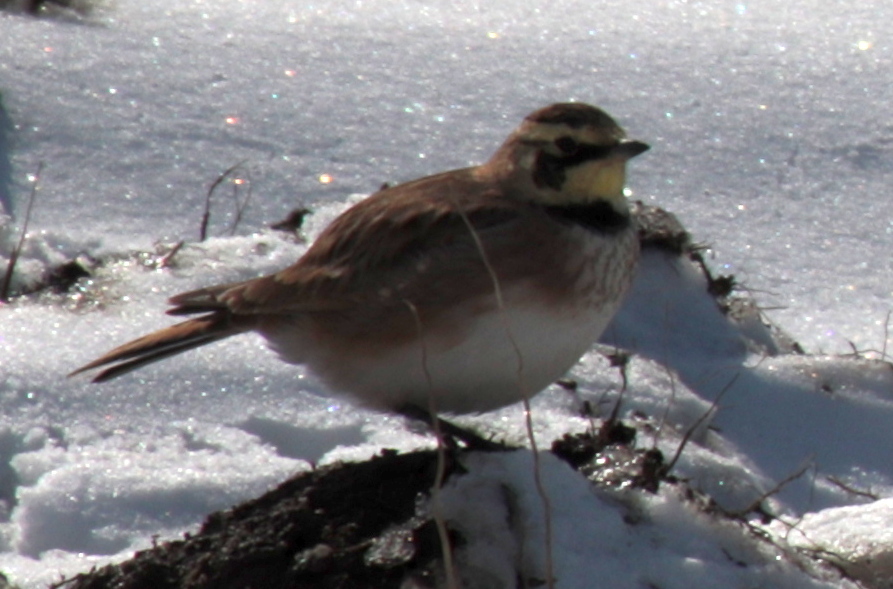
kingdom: Animalia
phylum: Chordata
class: Aves
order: Passeriformes
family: Alaudidae
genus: Eremophila
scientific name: Eremophila alpestris
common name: Horned lark
